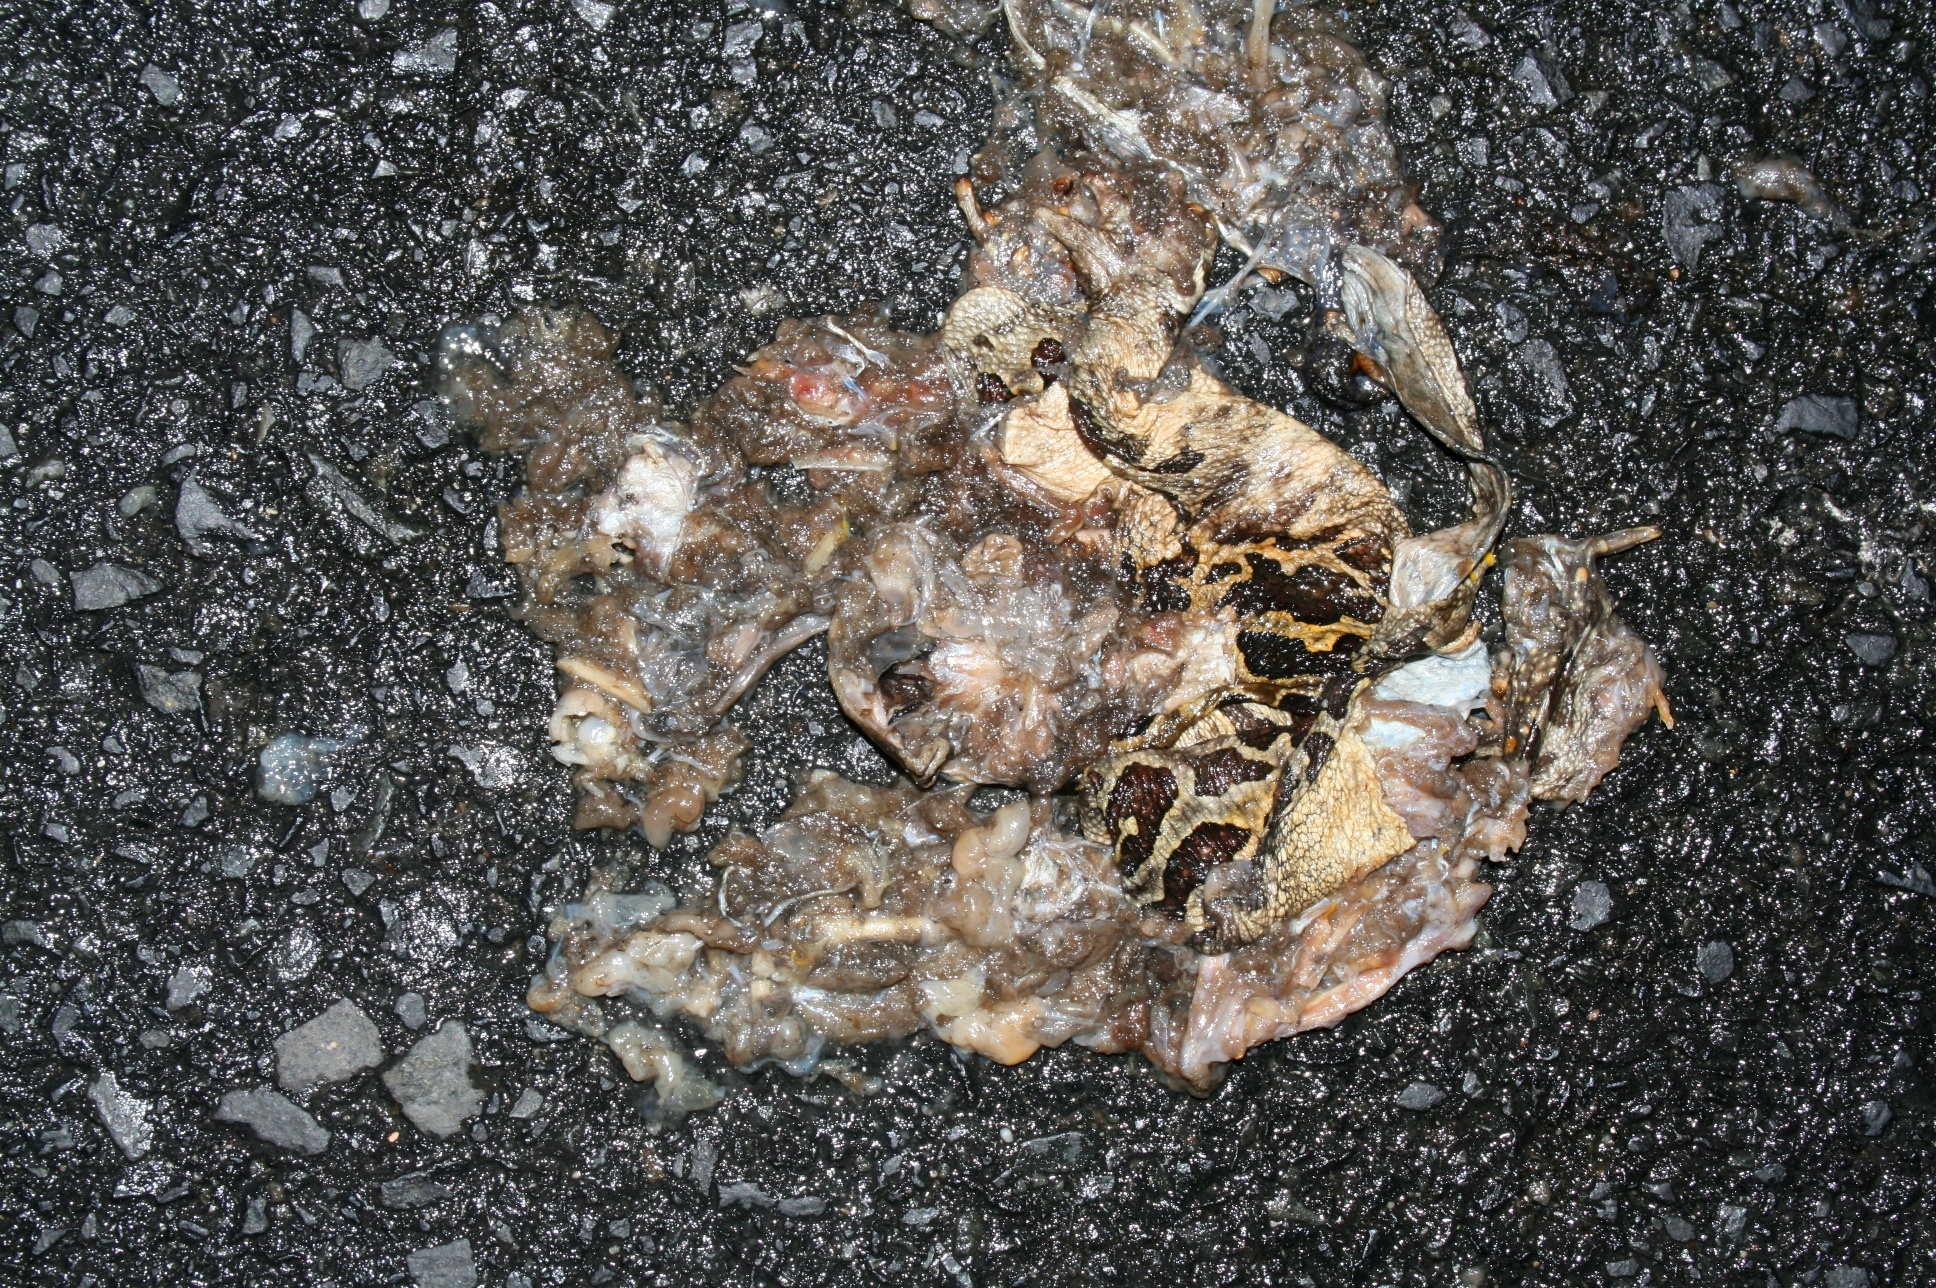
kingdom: Animalia
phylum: Chordata
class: Amphibia
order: Anura
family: Bufonidae
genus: Sclerophrys
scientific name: Sclerophrys pantherina
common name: Panther toad
